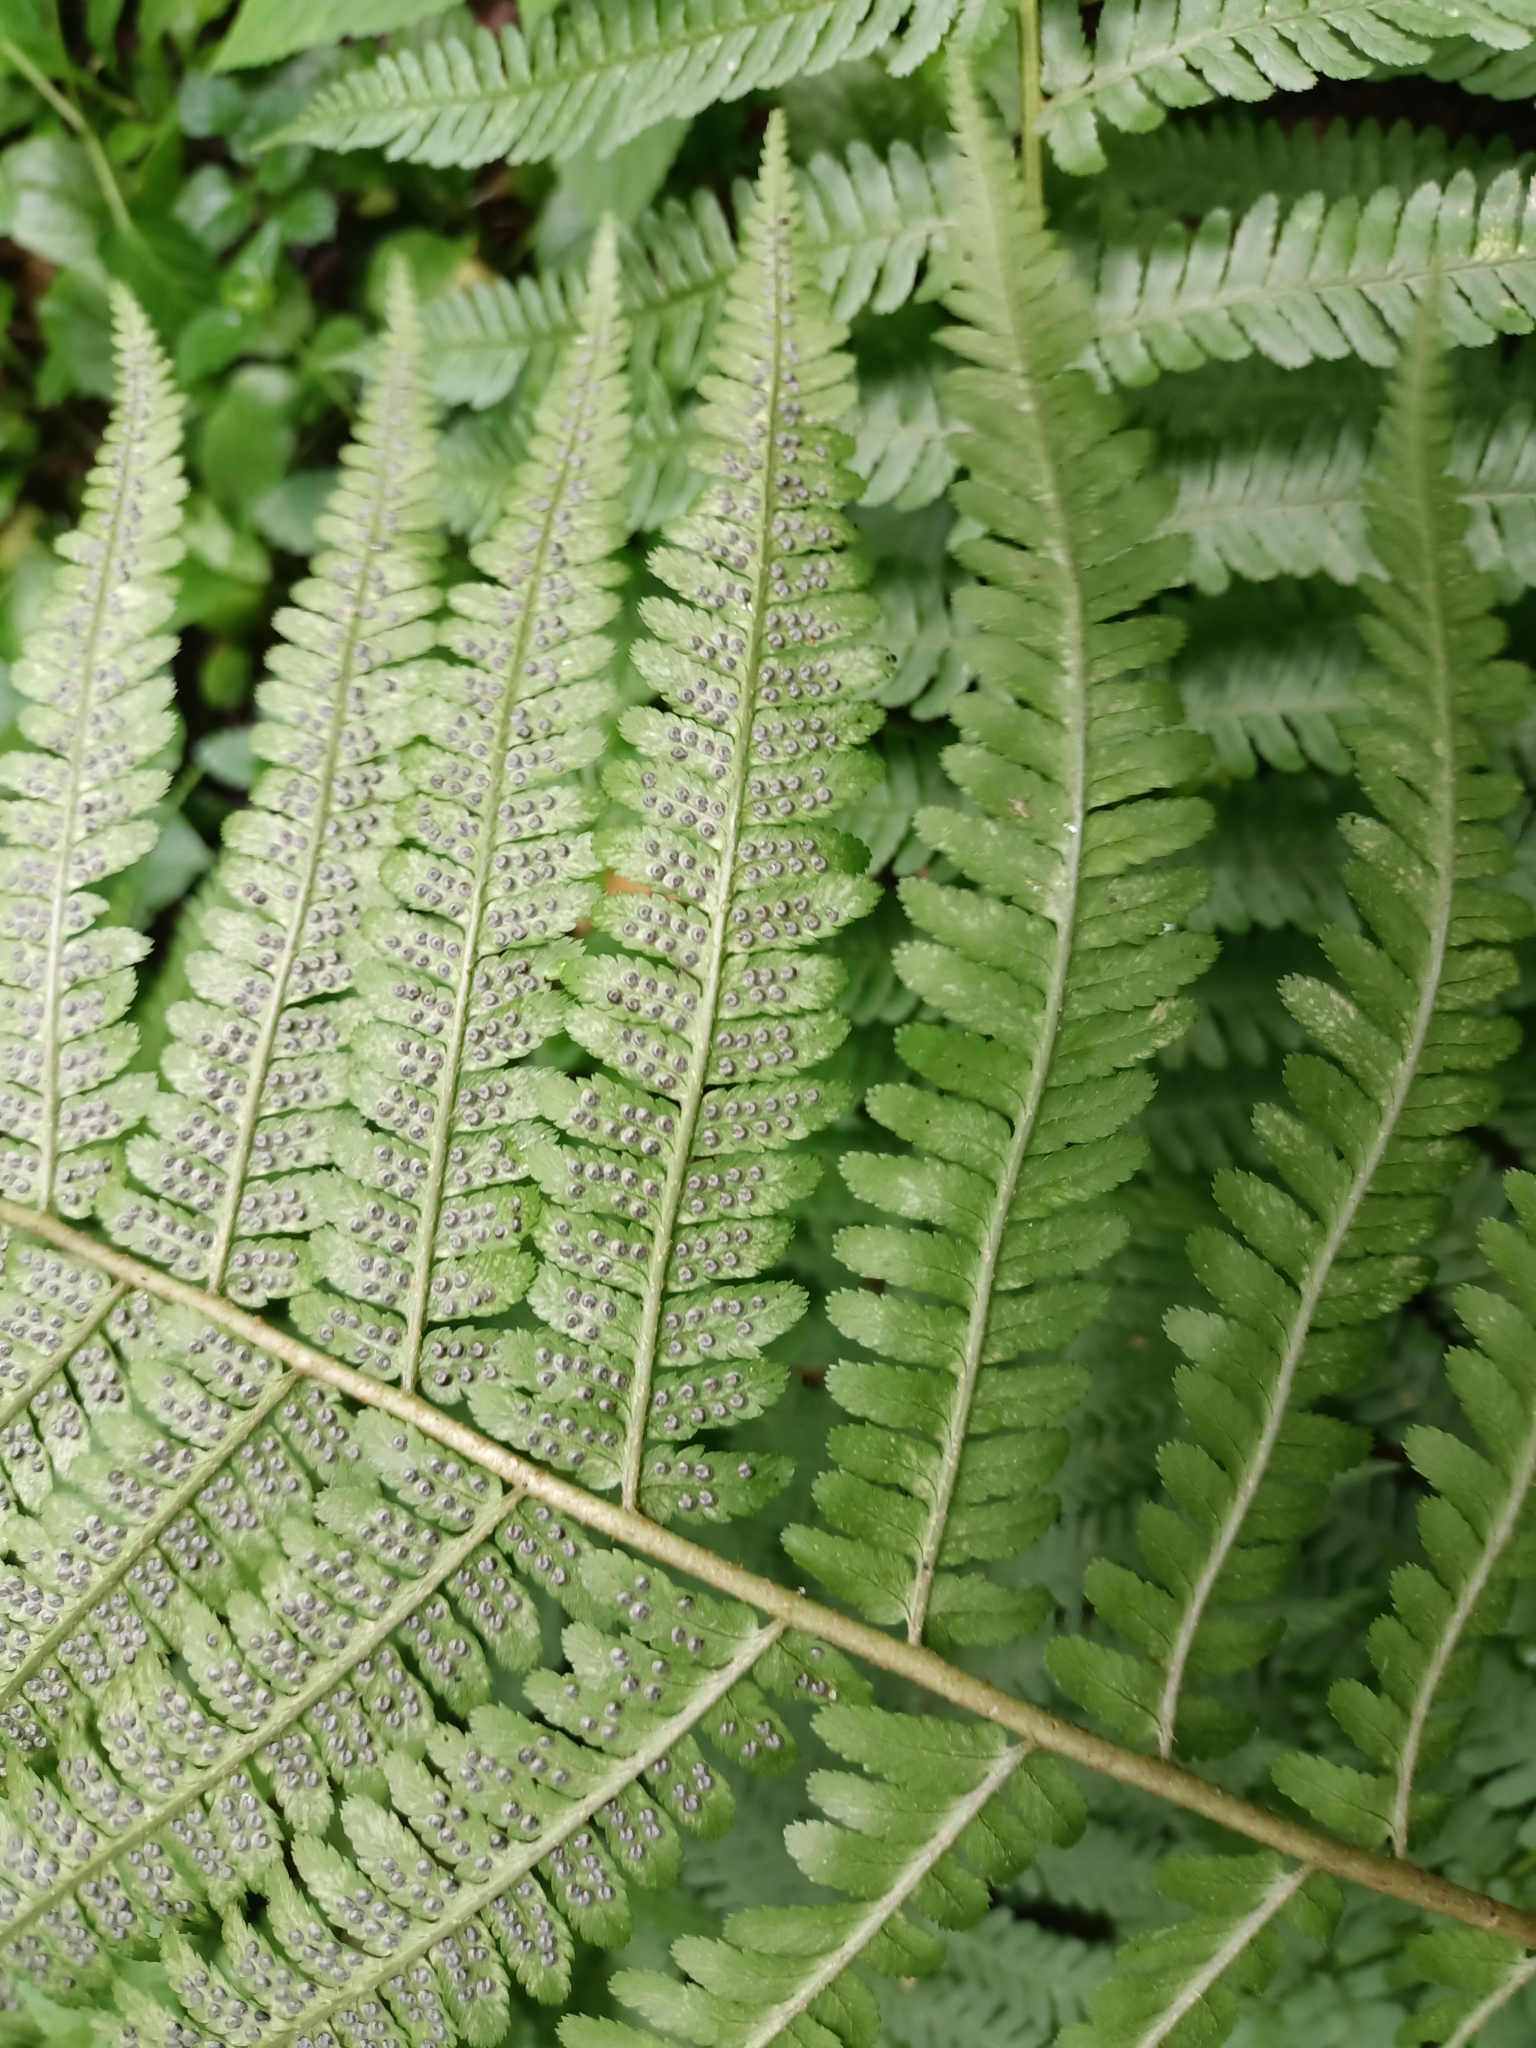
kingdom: Plantae
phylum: Tracheophyta
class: Polypodiopsida
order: Polypodiales
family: Dryopteridaceae
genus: Dryopteris
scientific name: Dryopteris filix-mas
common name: Male fern
